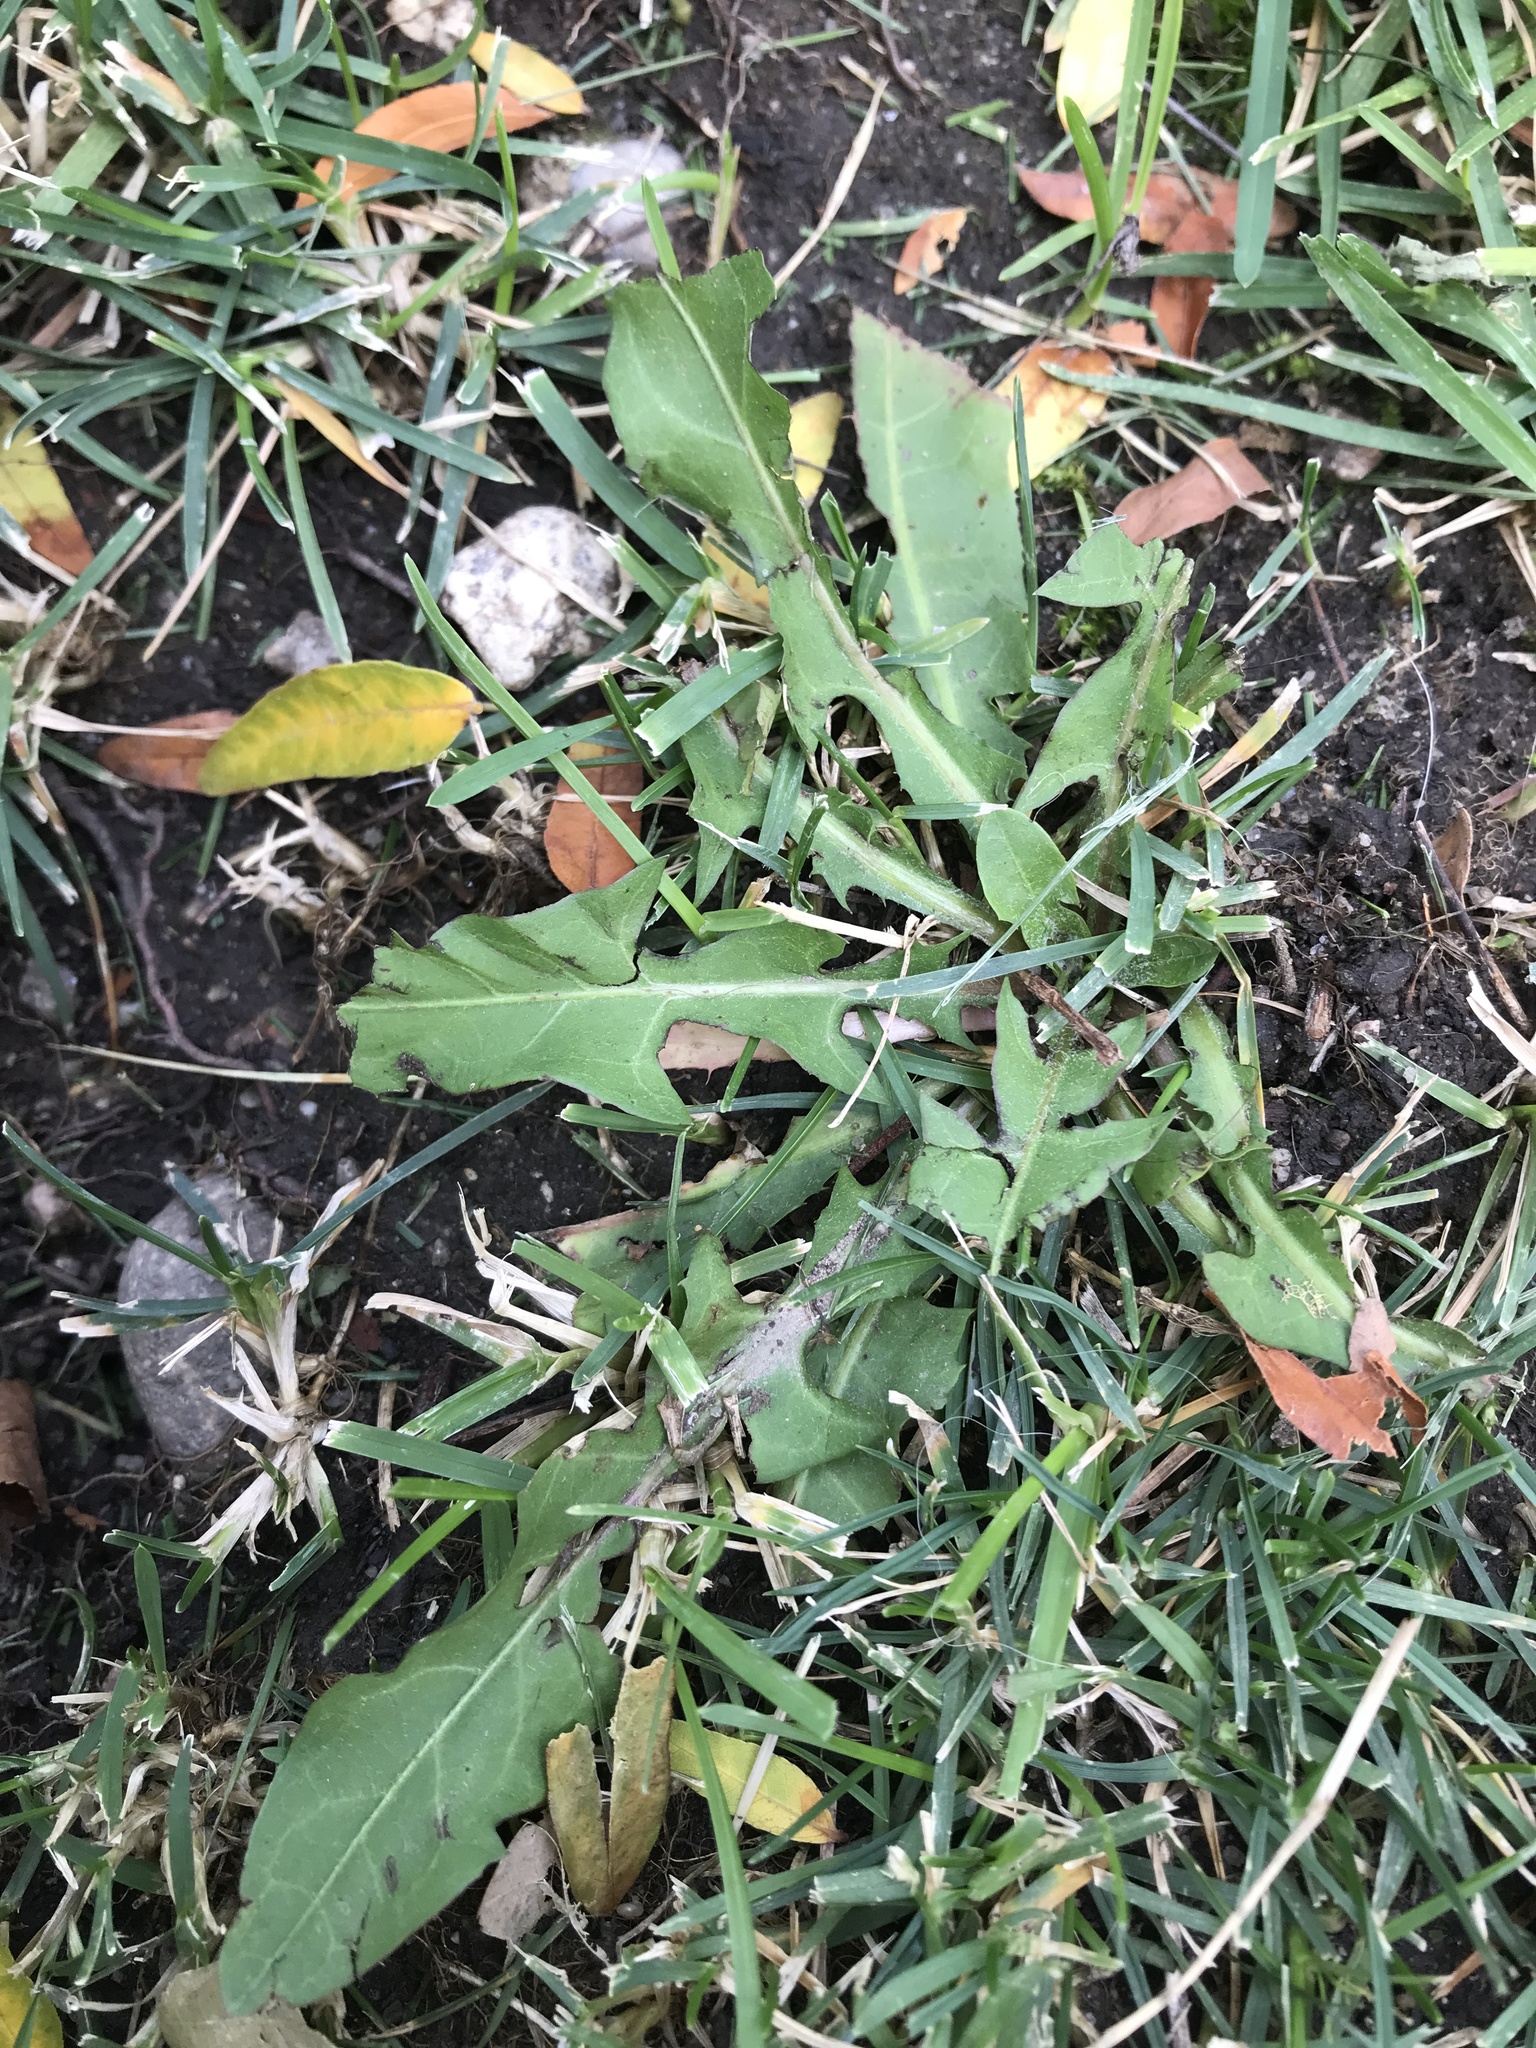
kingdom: Plantae
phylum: Tracheophyta
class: Magnoliopsida
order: Asterales
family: Asteraceae
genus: Taraxacum
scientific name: Taraxacum officinale
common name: Common dandelion
